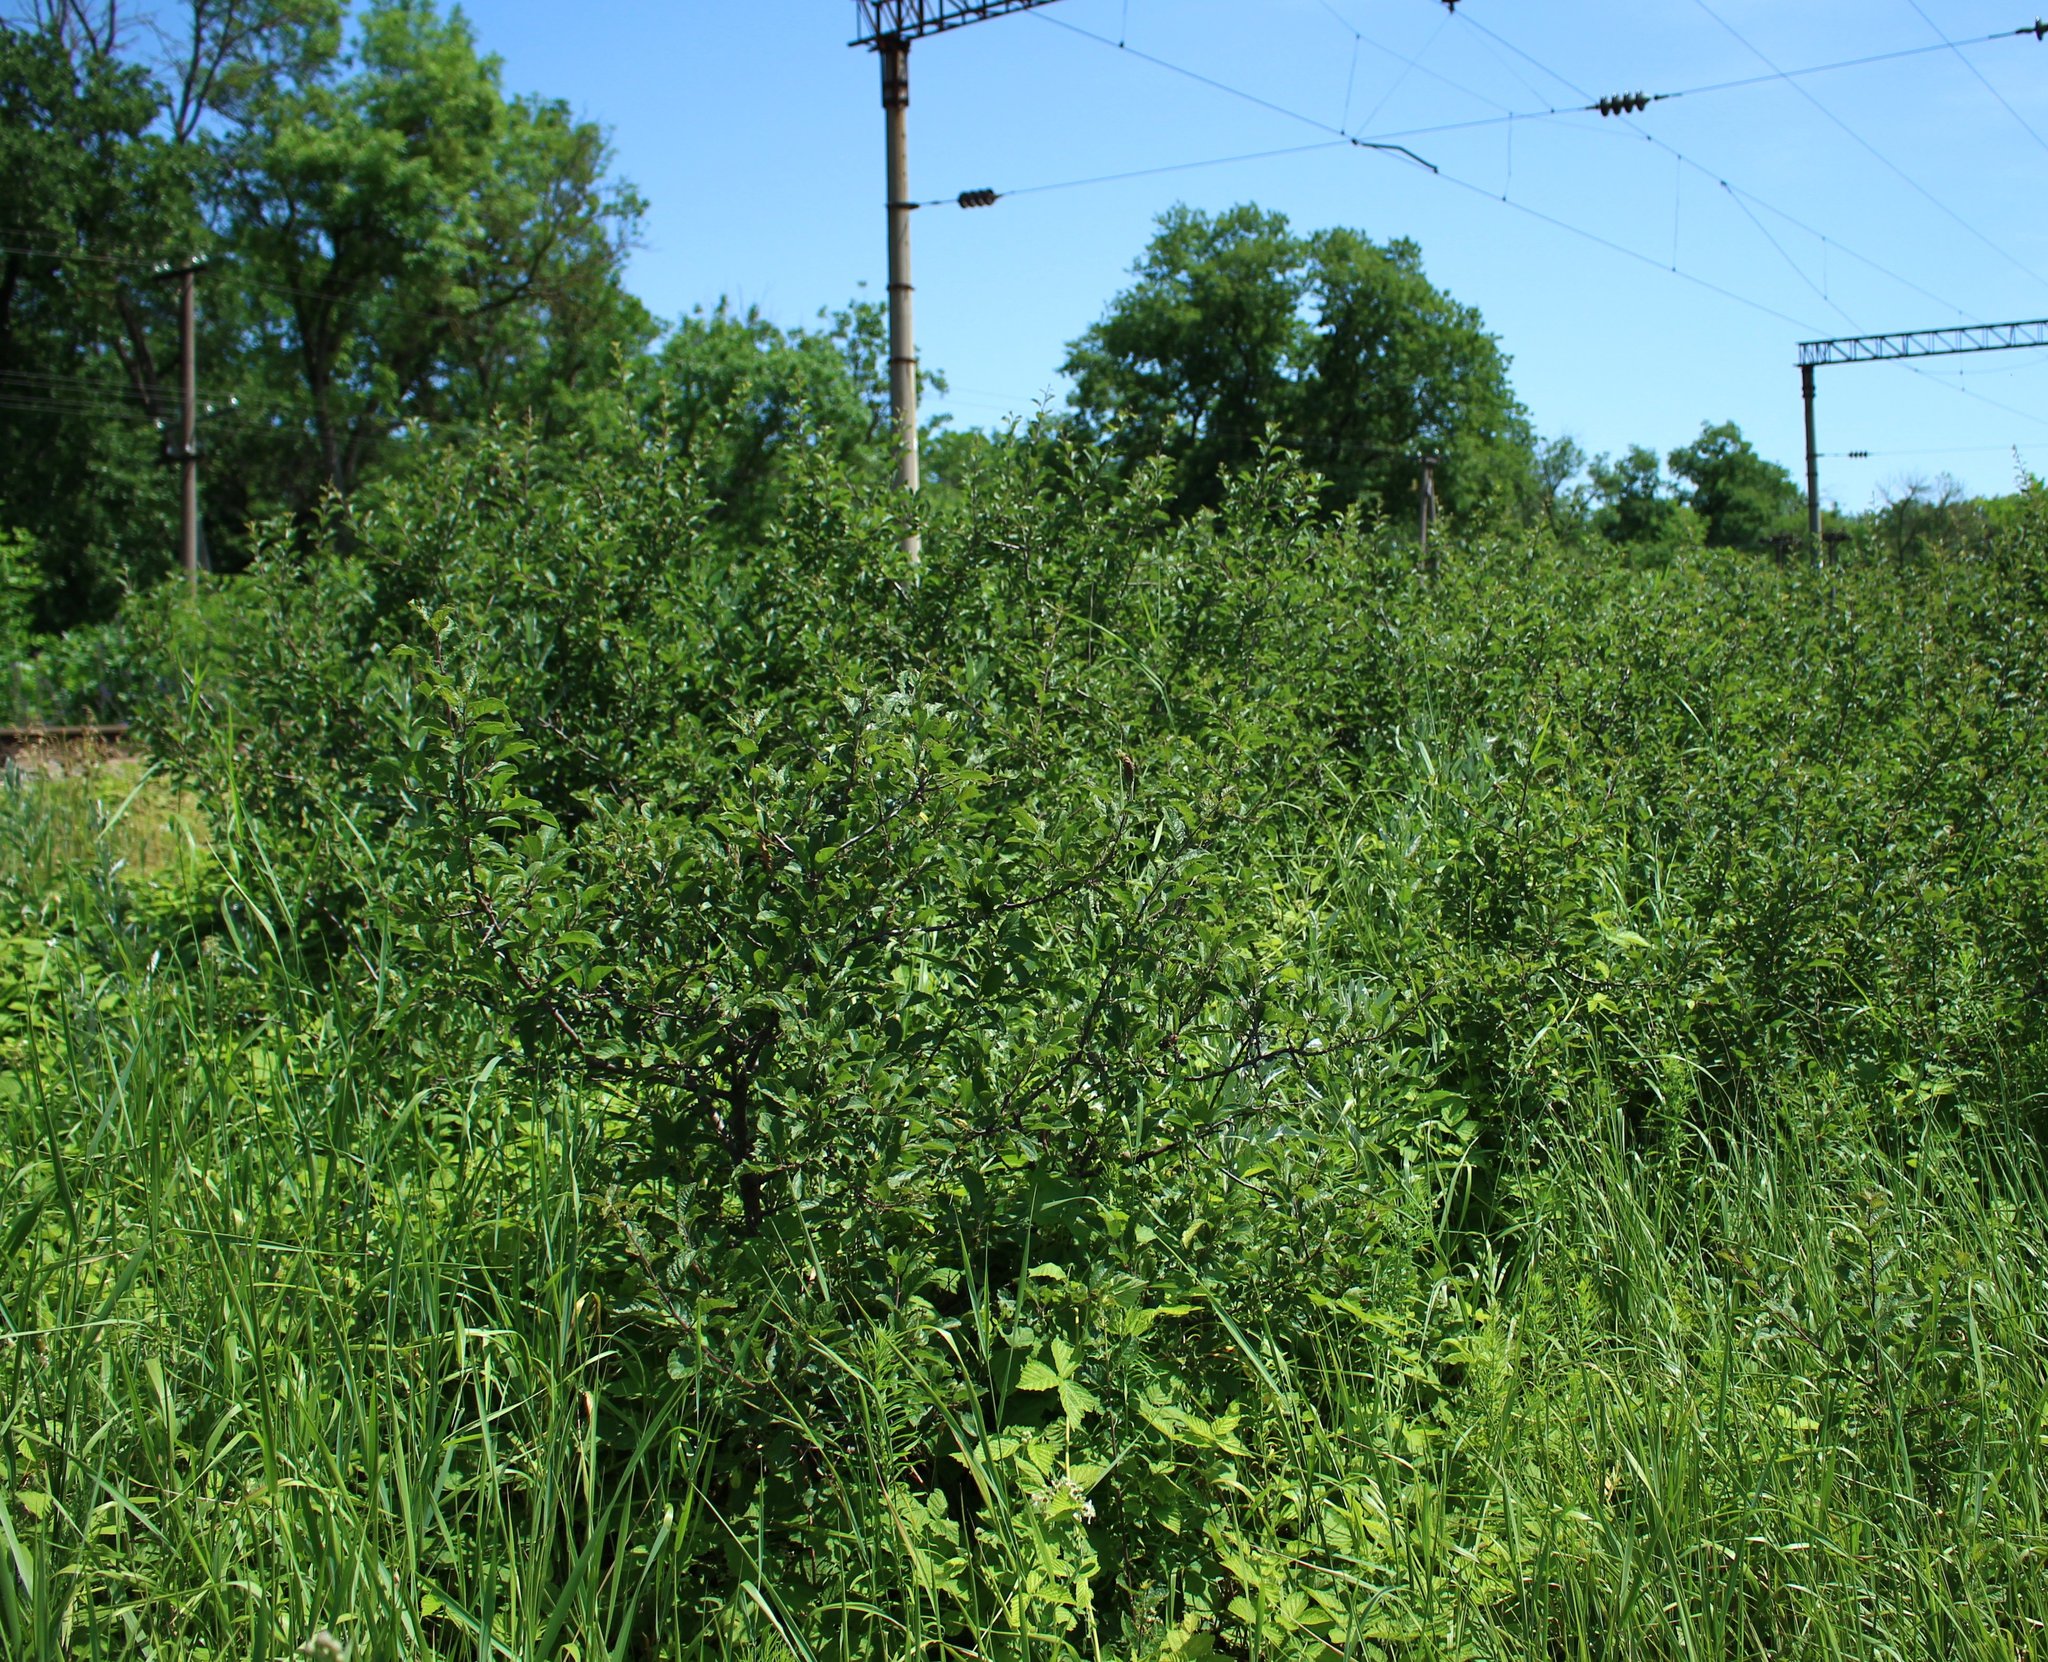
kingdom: Plantae
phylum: Tracheophyta
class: Magnoliopsida
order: Rosales
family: Rosaceae
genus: Prunus
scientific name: Prunus spinosa
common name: Blackthorn
